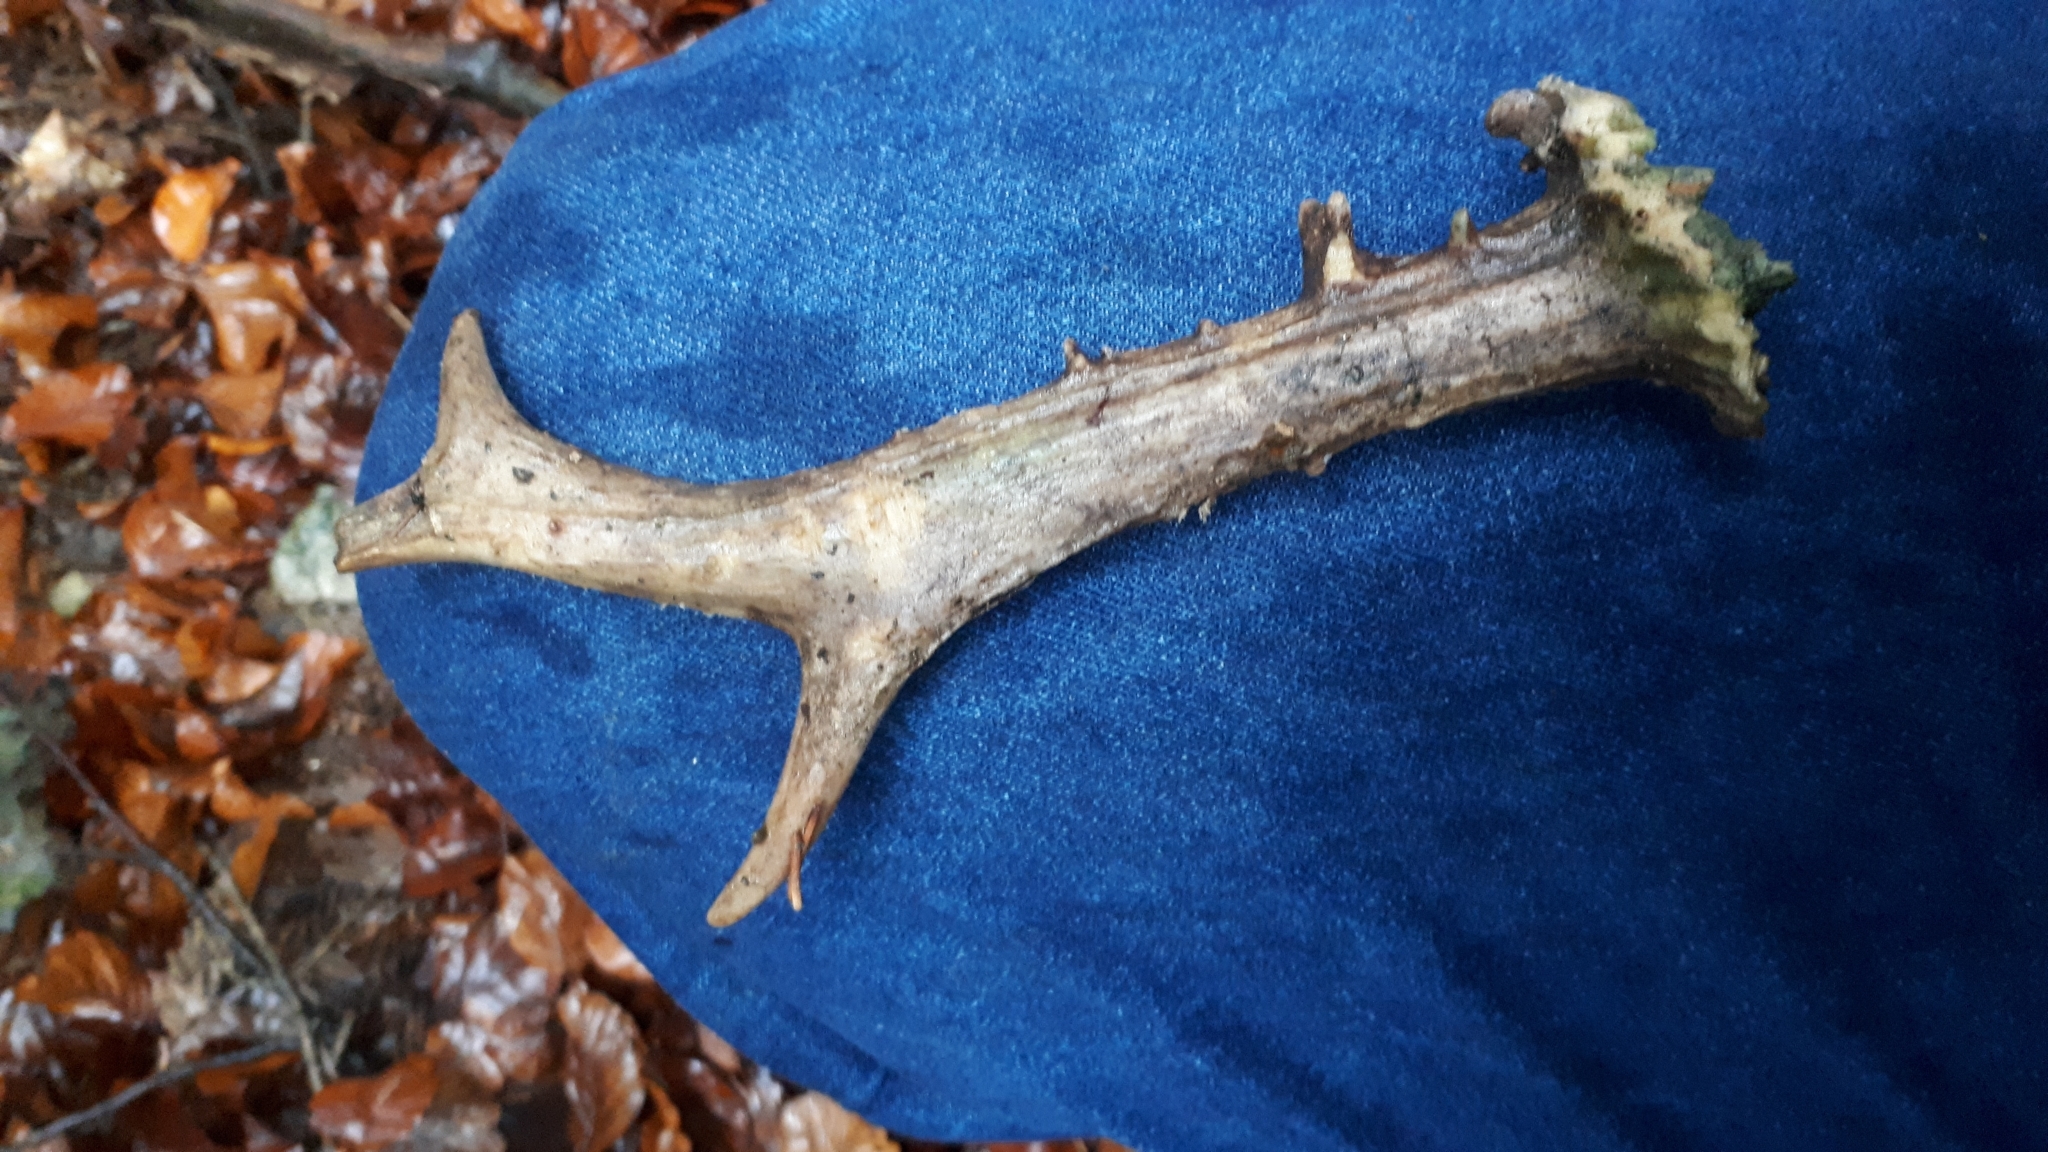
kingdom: Animalia
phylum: Chordata
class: Mammalia
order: Artiodactyla
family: Cervidae
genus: Capreolus
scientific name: Capreolus capreolus
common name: Western roe deer
